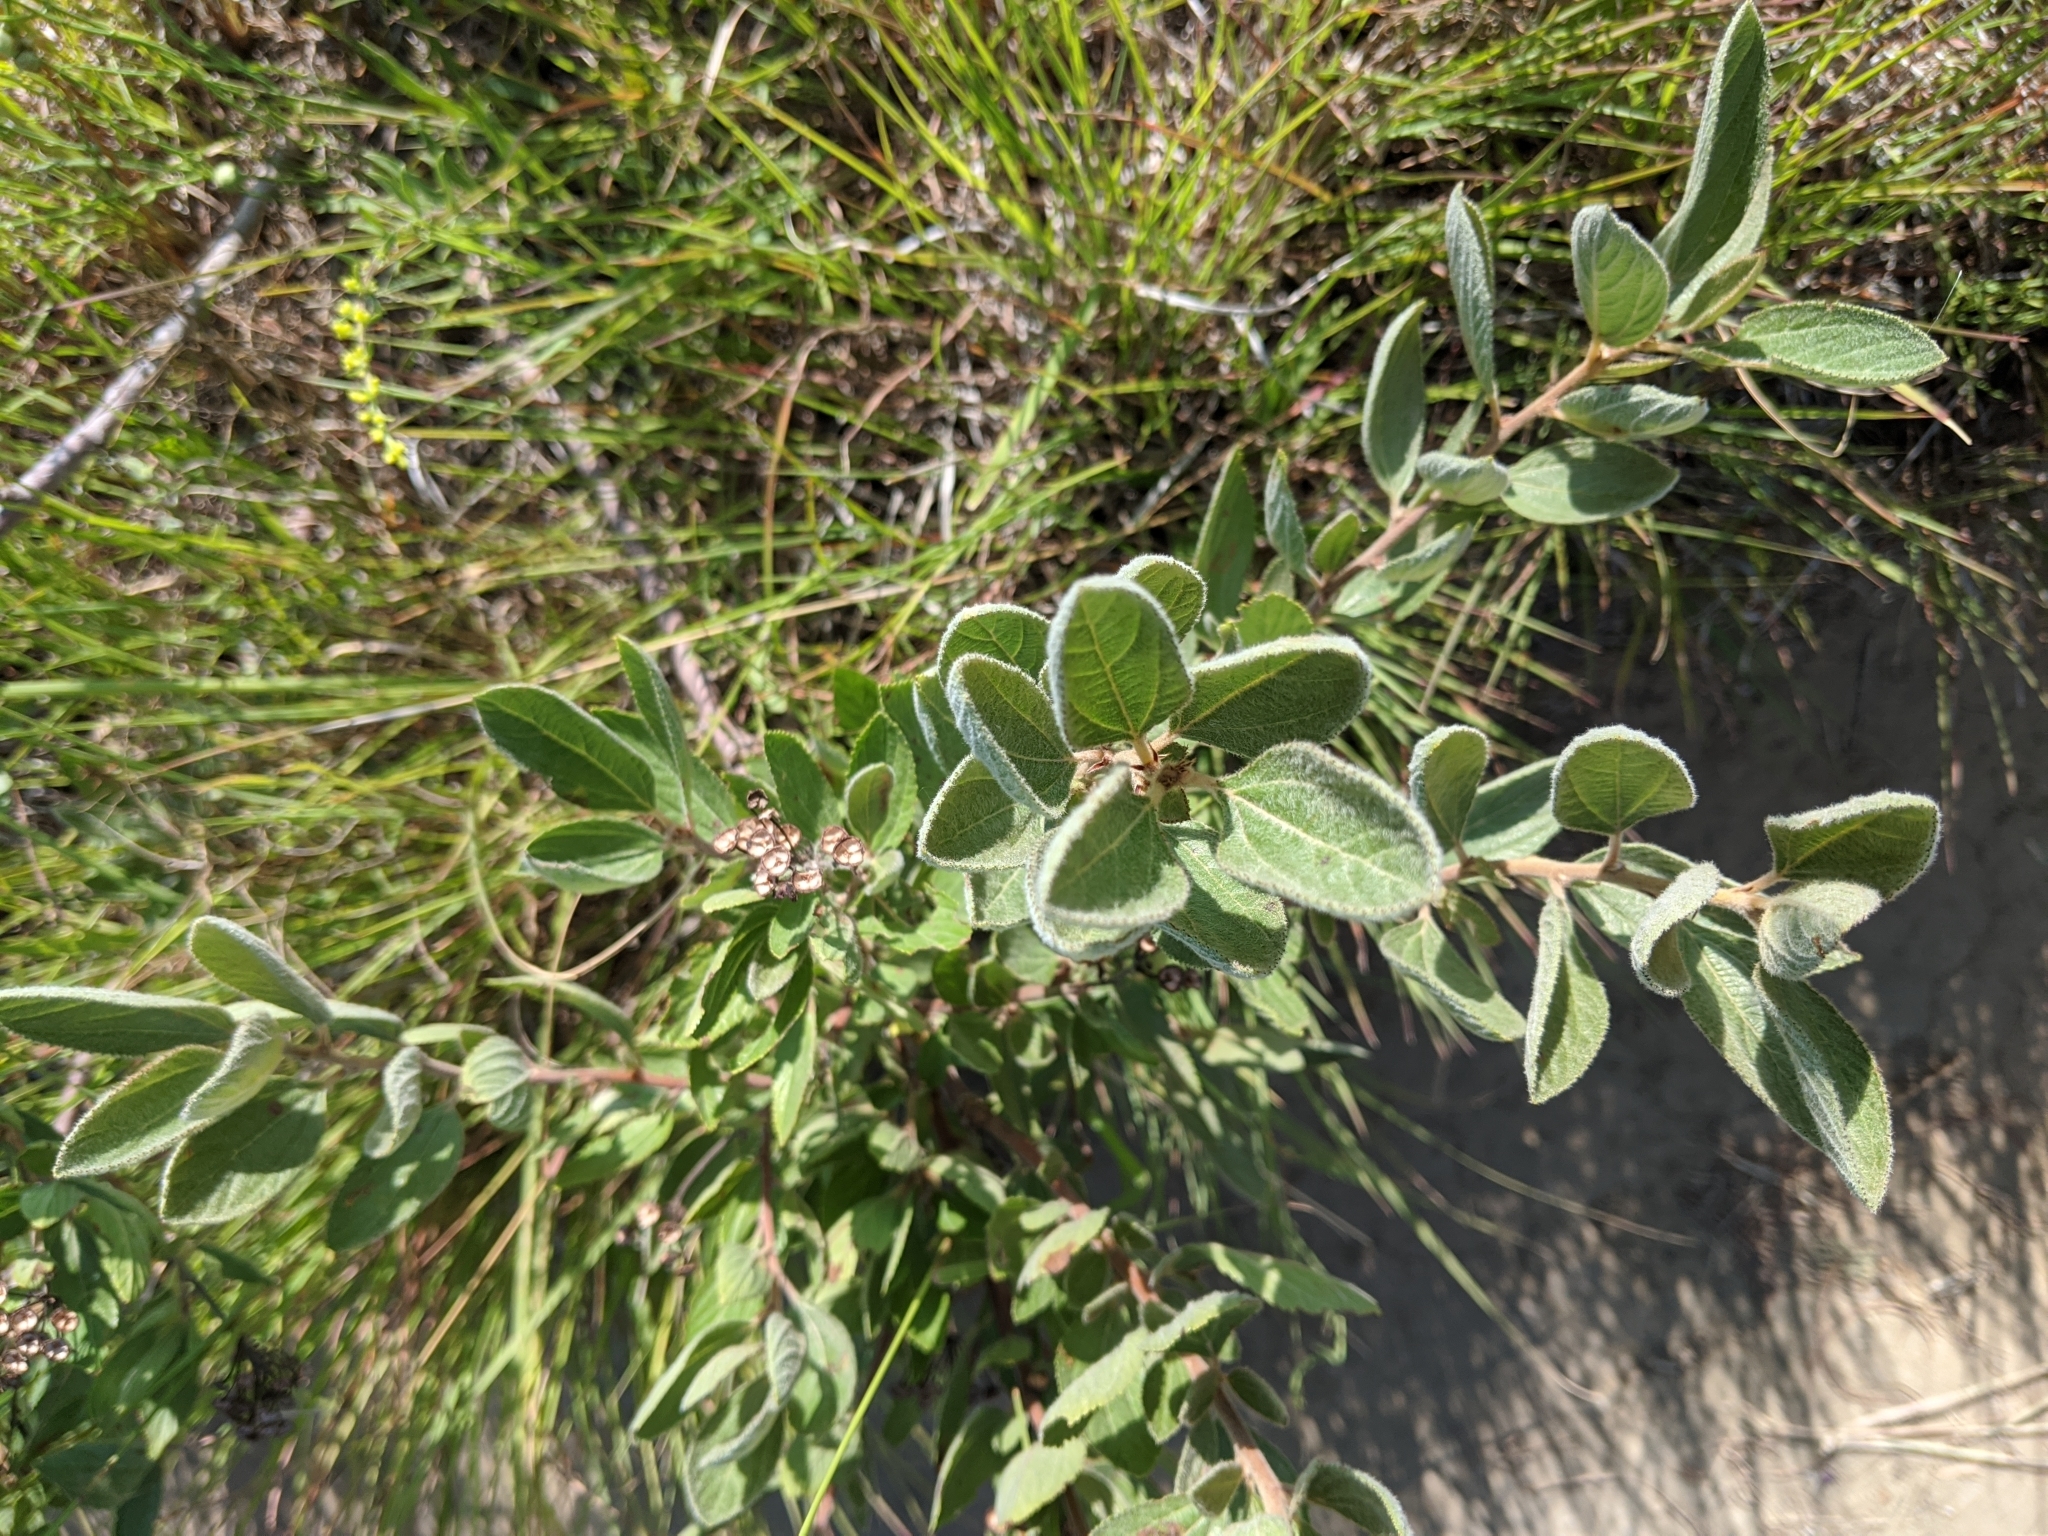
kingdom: Plantae
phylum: Tracheophyta
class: Magnoliopsida
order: Rosales
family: Rhamnaceae
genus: Ceanothus
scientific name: Ceanothus herbaceus
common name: Inland ceanothus
